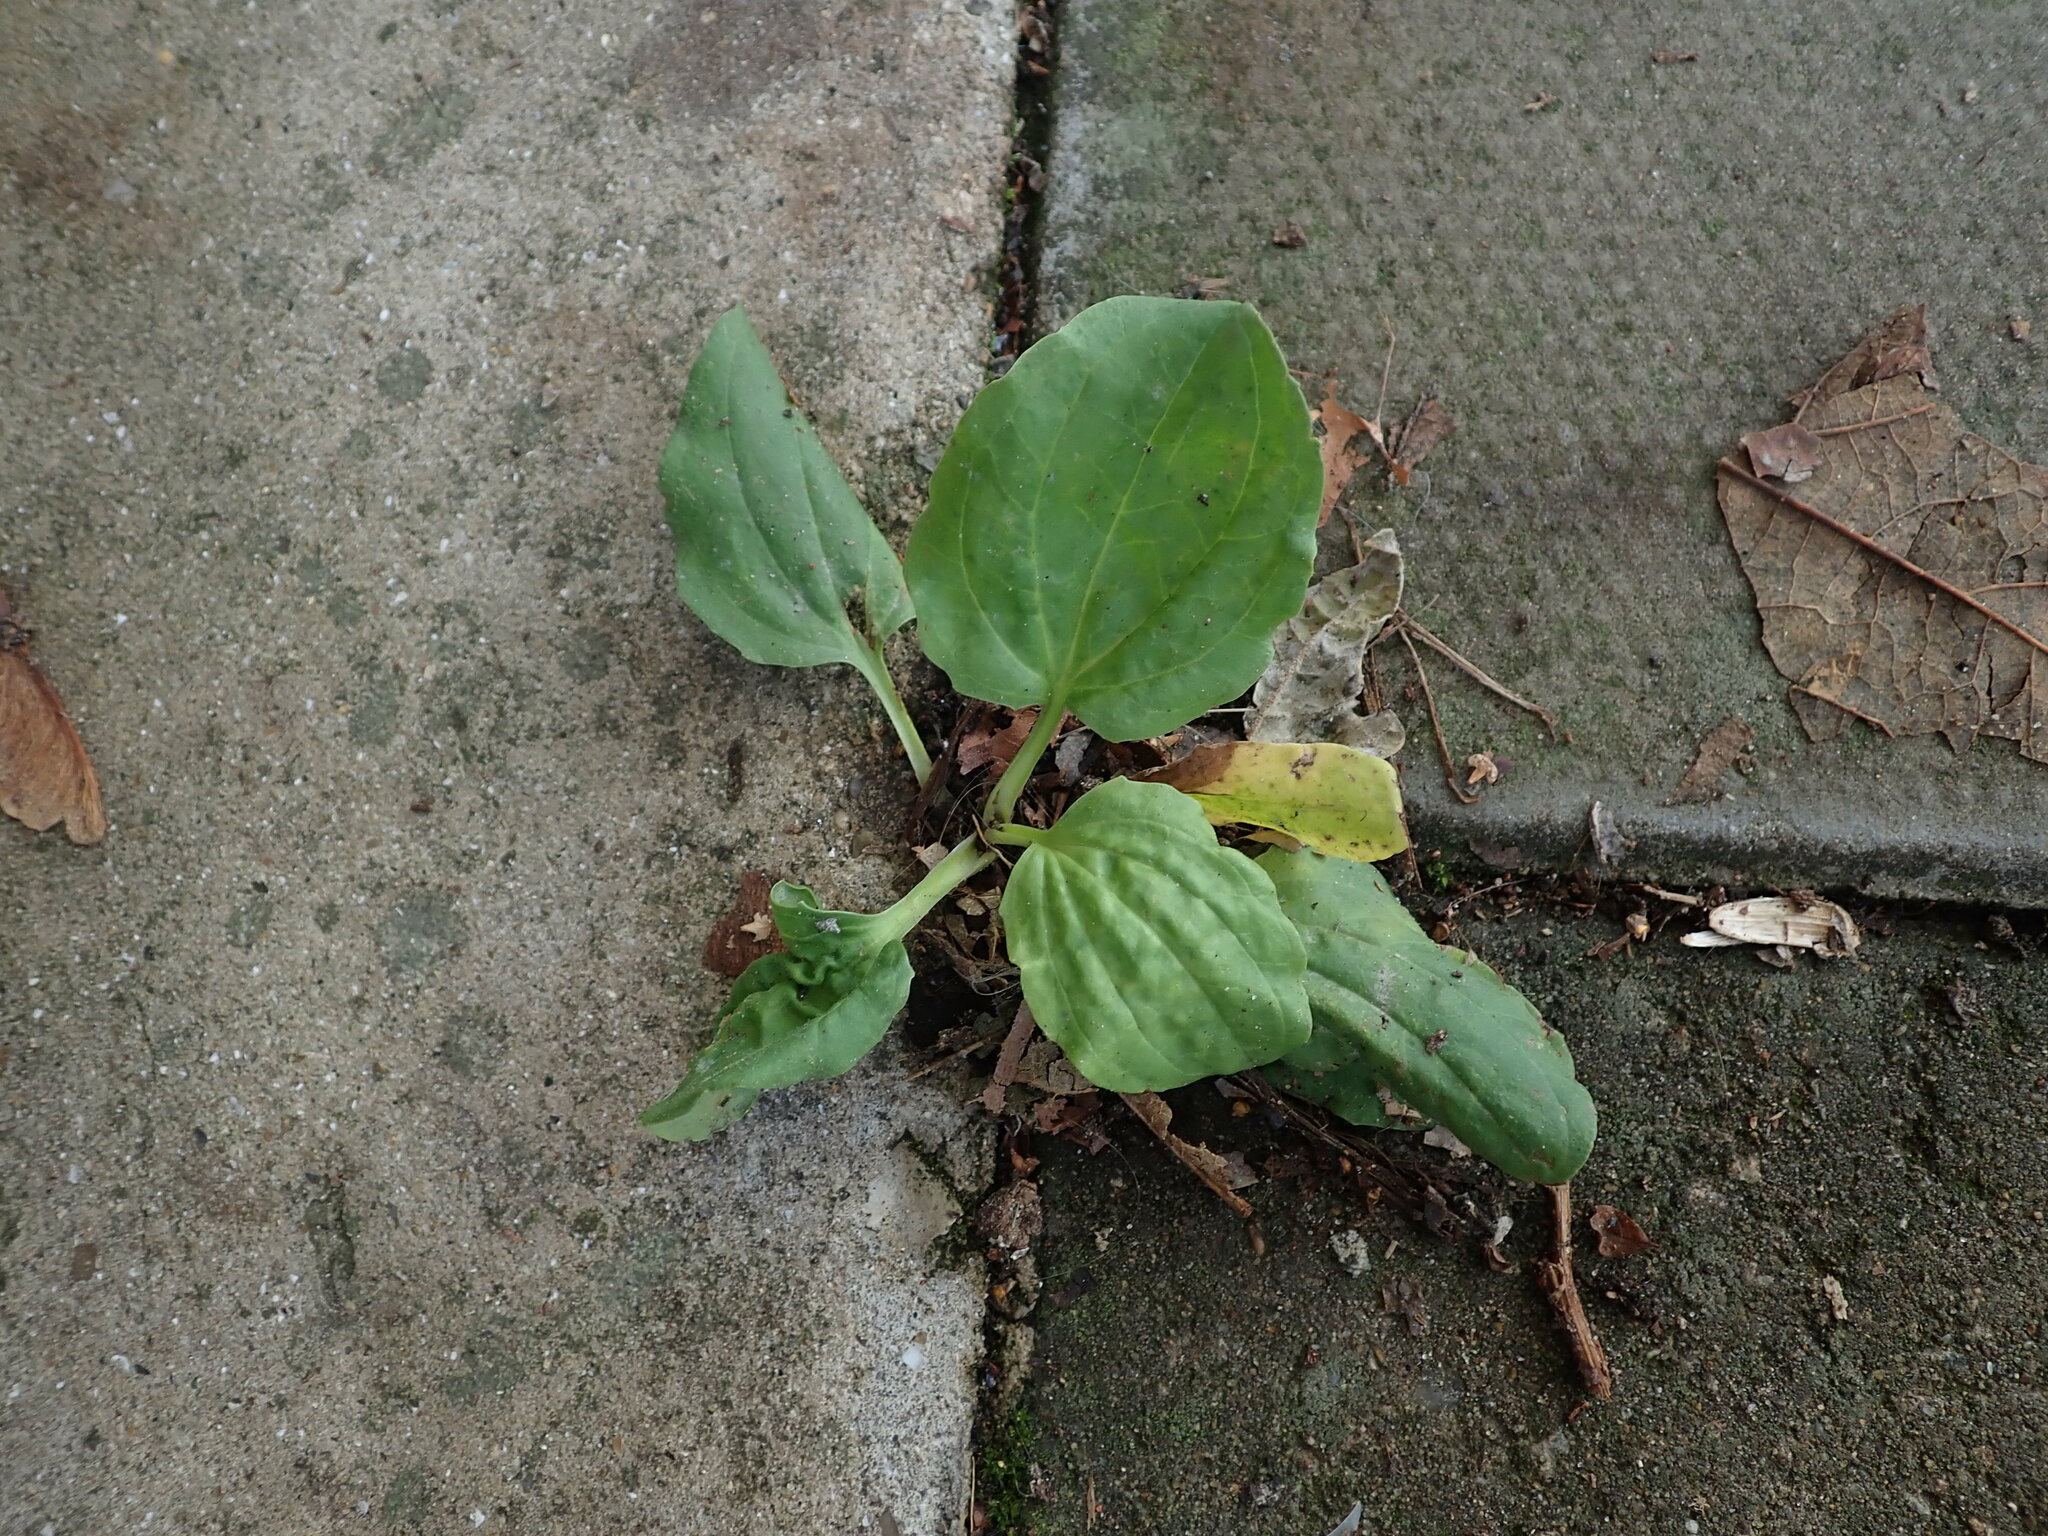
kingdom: Plantae
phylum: Tracheophyta
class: Magnoliopsida
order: Lamiales
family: Plantaginaceae
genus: Plantago
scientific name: Plantago major
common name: Common plantain
